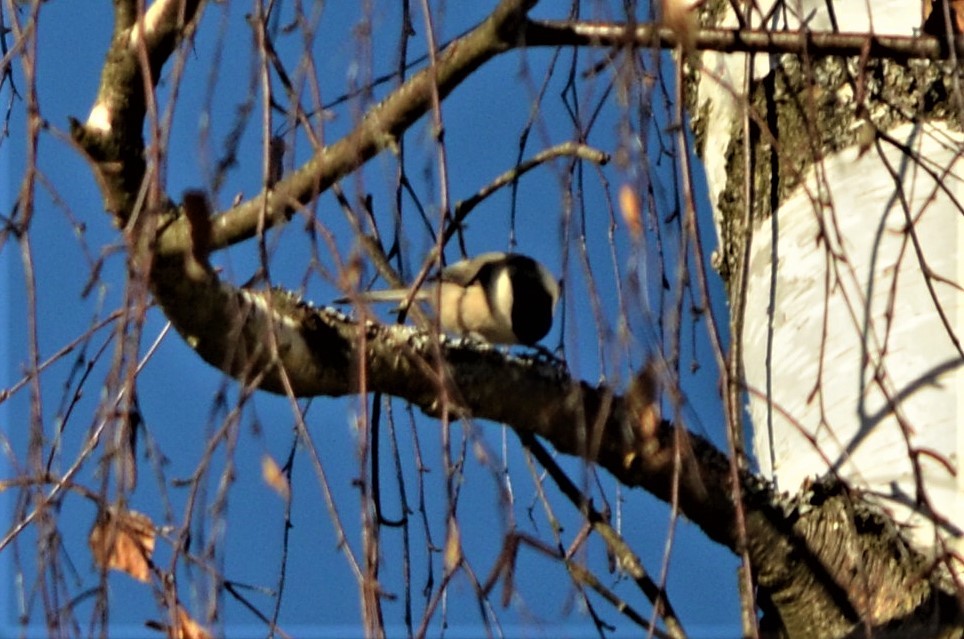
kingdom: Animalia
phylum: Chordata
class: Aves
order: Passeriformes
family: Paridae
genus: Poecile
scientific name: Poecile palustris
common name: Marsh tit
